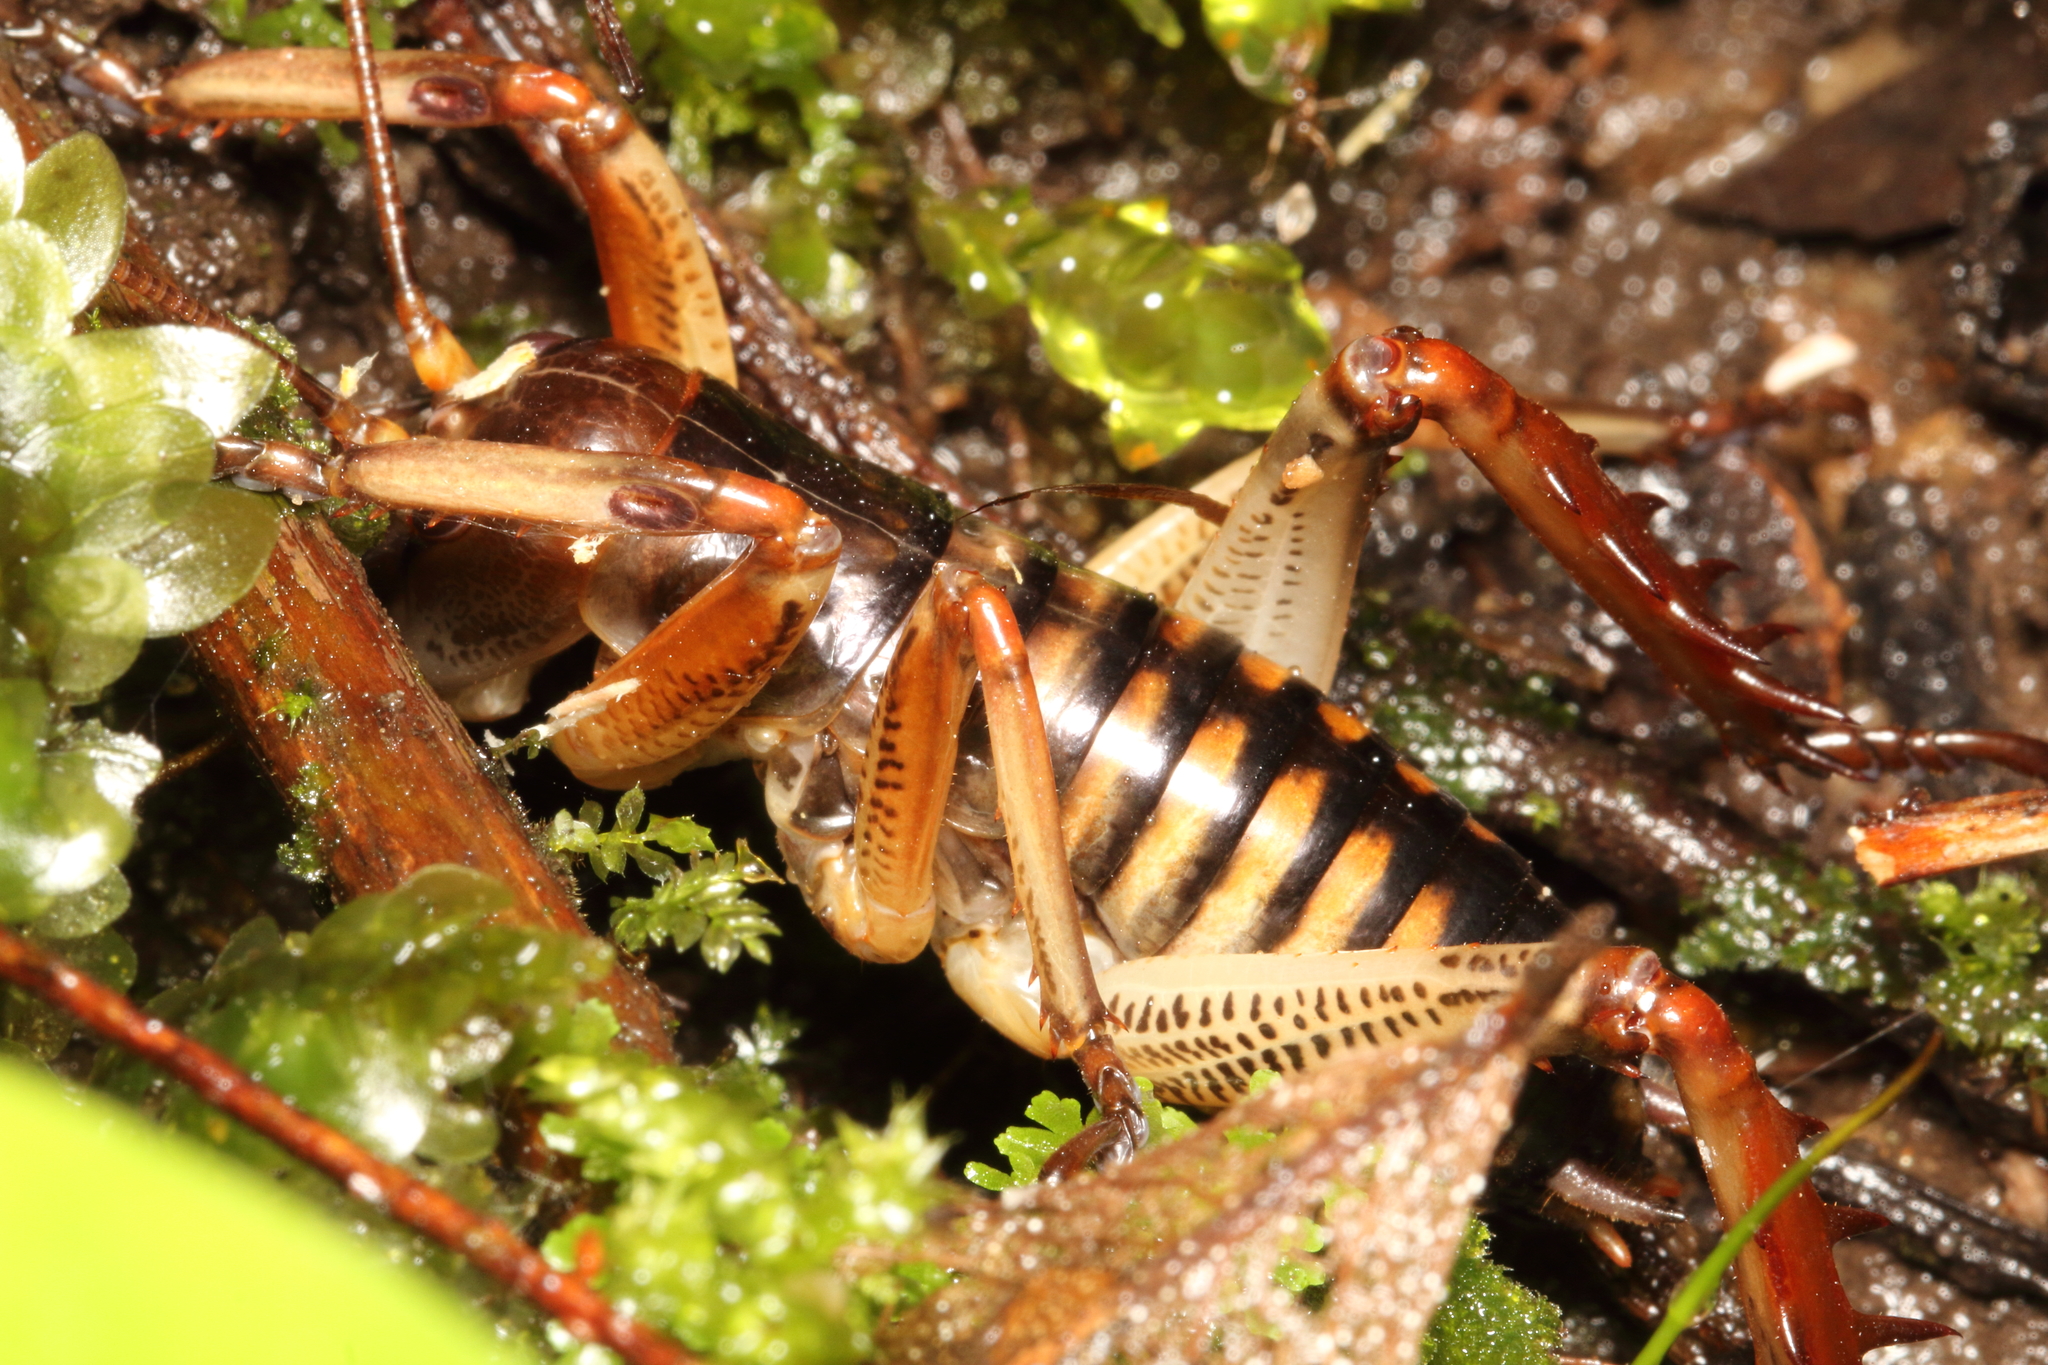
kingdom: Animalia
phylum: Arthropoda
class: Insecta
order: Orthoptera
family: Anostostomatidae
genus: Hemideina
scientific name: Hemideina crassidens
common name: Wellington tree weta
